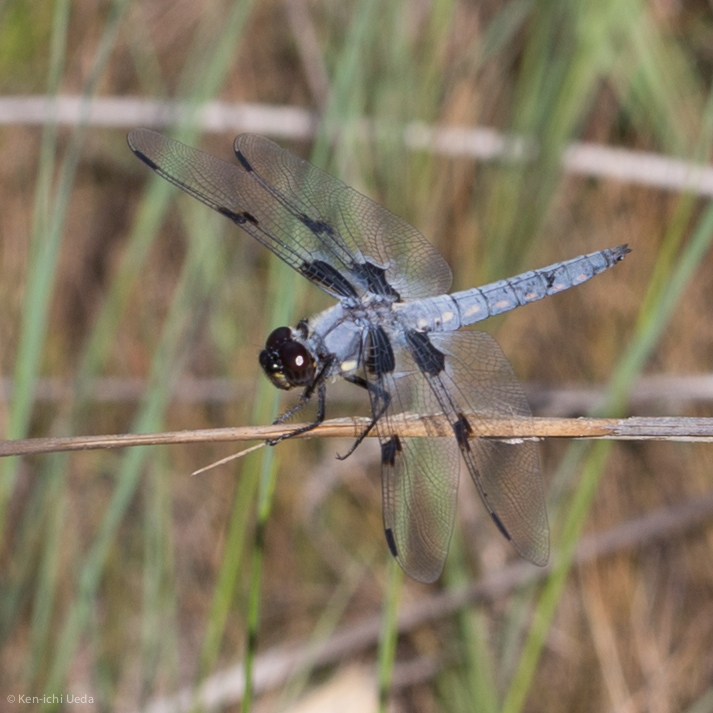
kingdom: Animalia
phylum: Arthropoda
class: Insecta
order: Odonata
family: Libellulidae
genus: Libellula
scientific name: Libellula nodisticta
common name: Hoary skimmer
